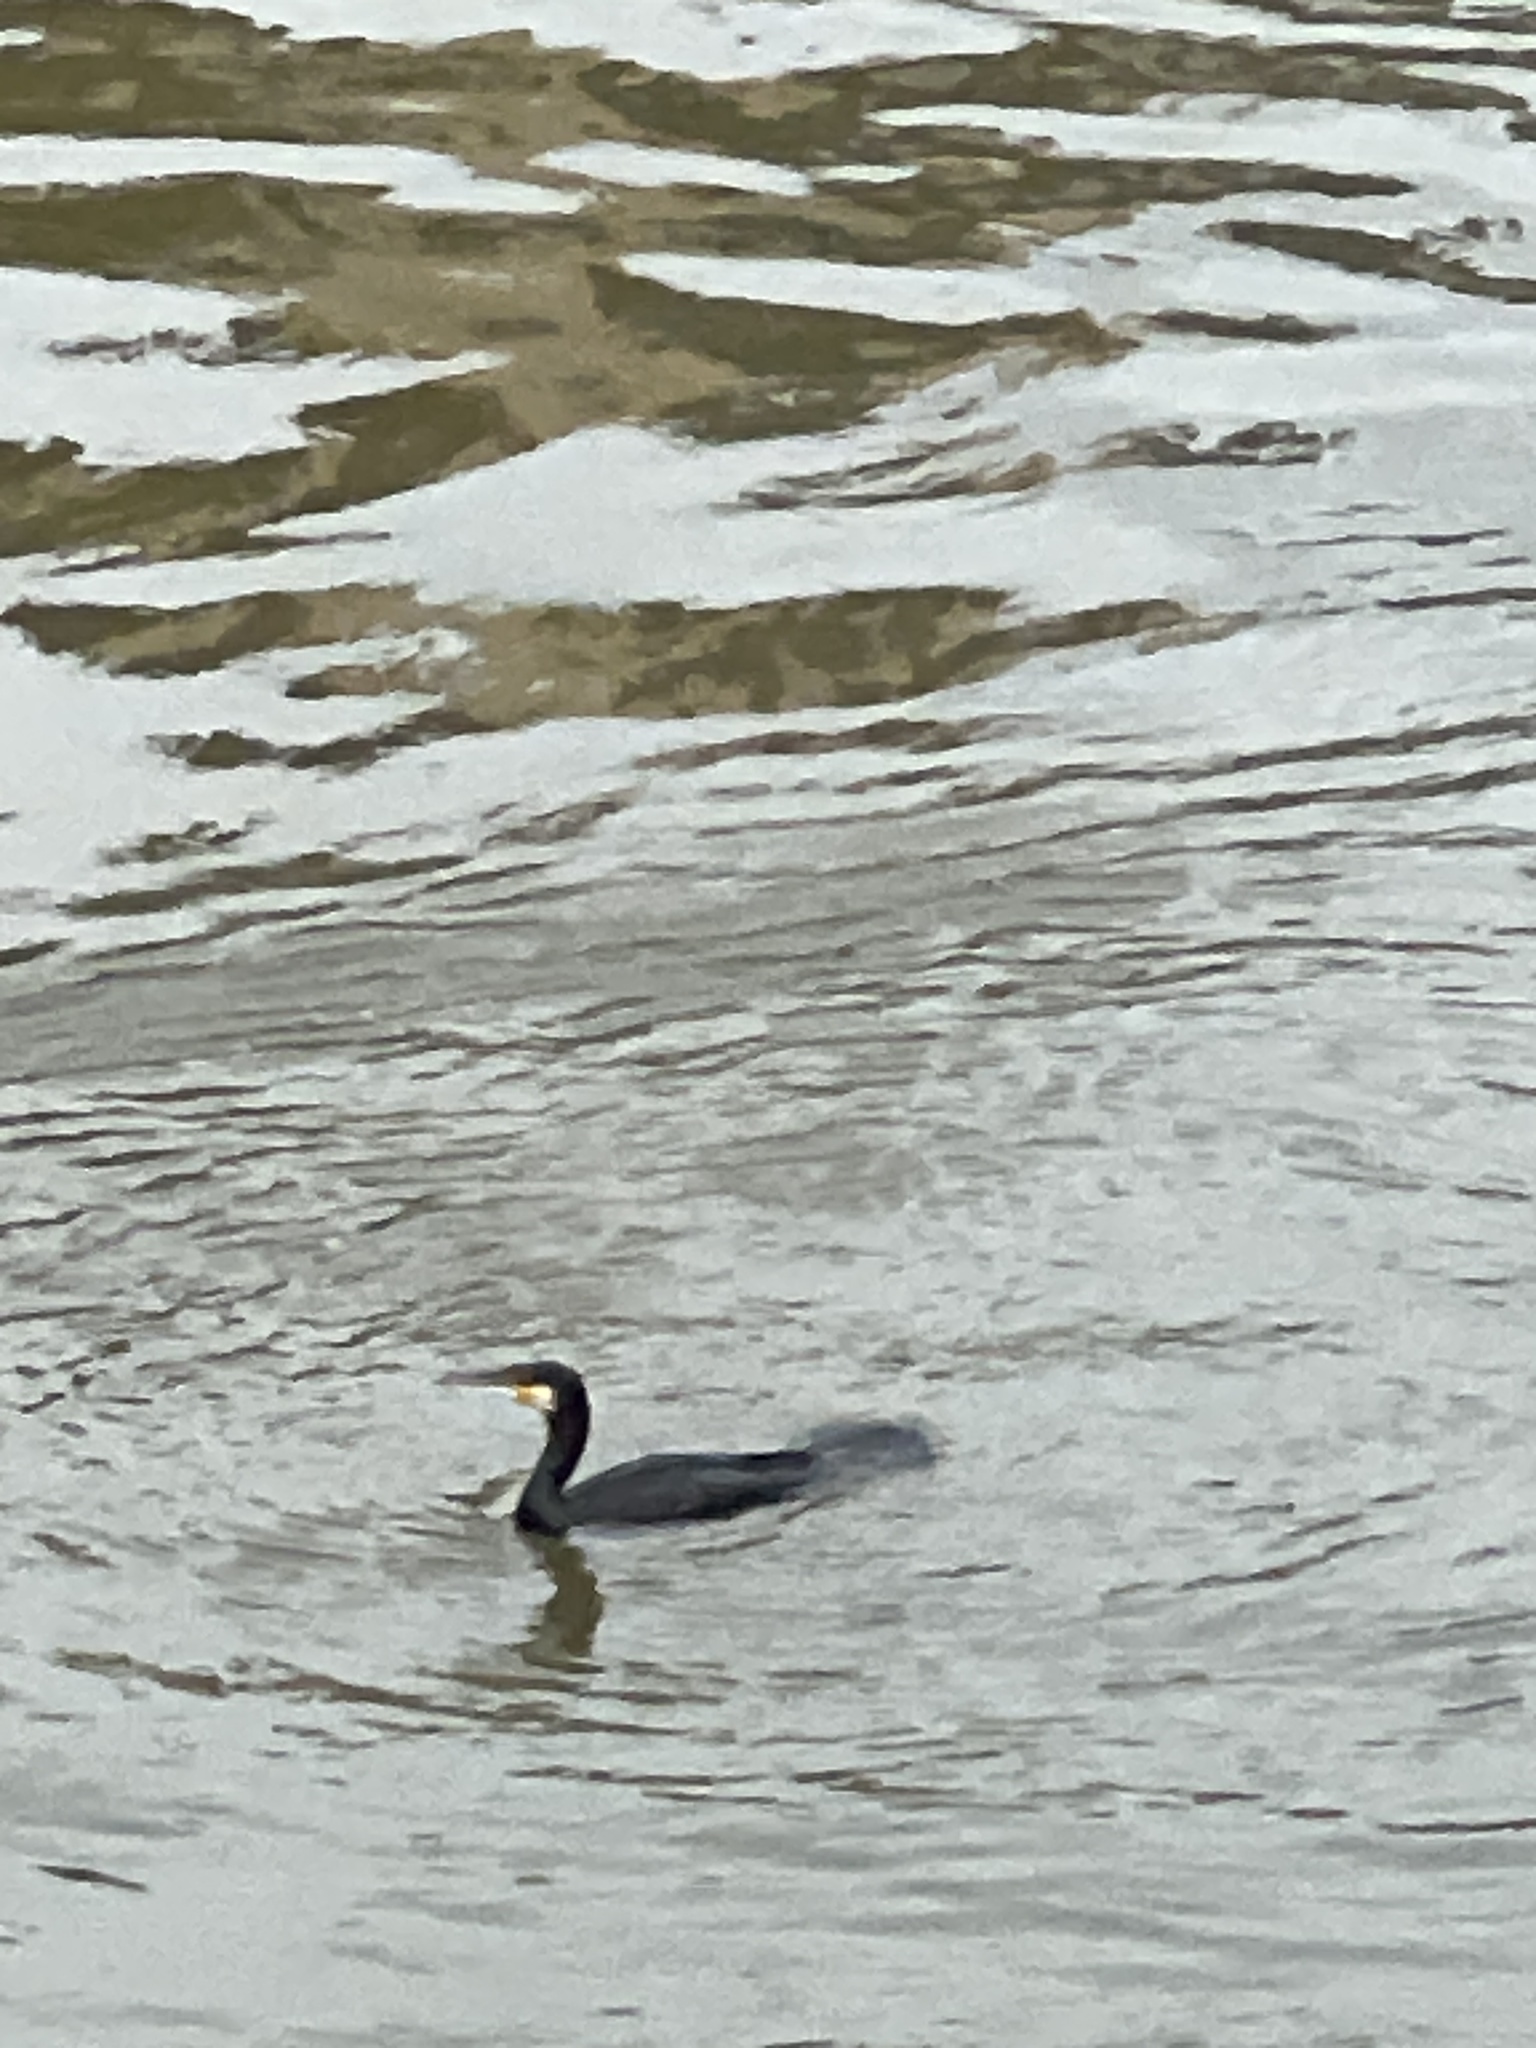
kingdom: Animalia
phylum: Chordata
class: Aves
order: Suliformes
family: Phalacrocoracidae
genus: Phalacrocorax
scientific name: Phalacrocorax carbo
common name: Great cormorant
